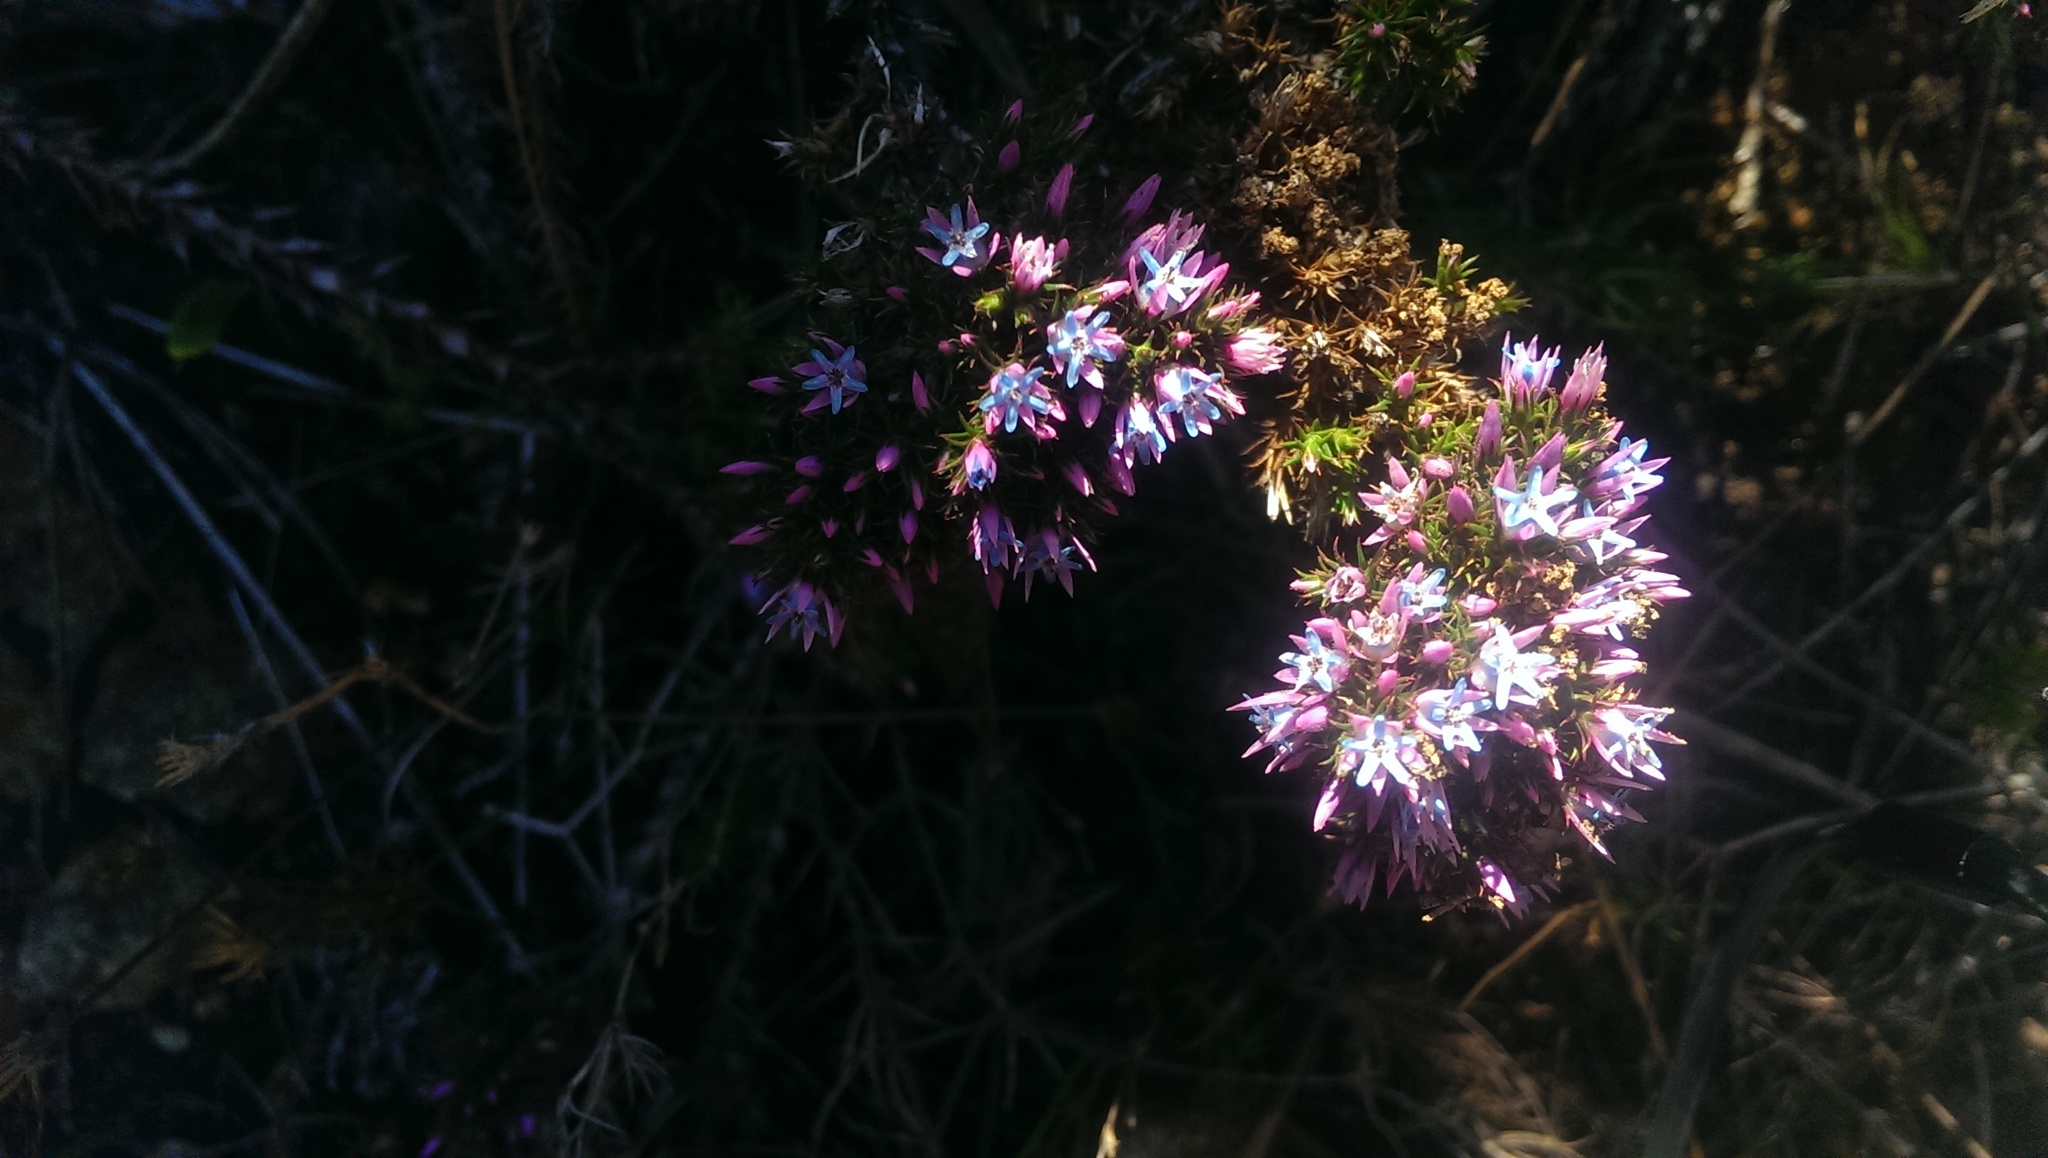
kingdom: Plantae
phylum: Tracheophyta
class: Magnoliopsida
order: Ericales
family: Ericaceae
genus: Andersonia
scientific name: Andersonia caerulea
